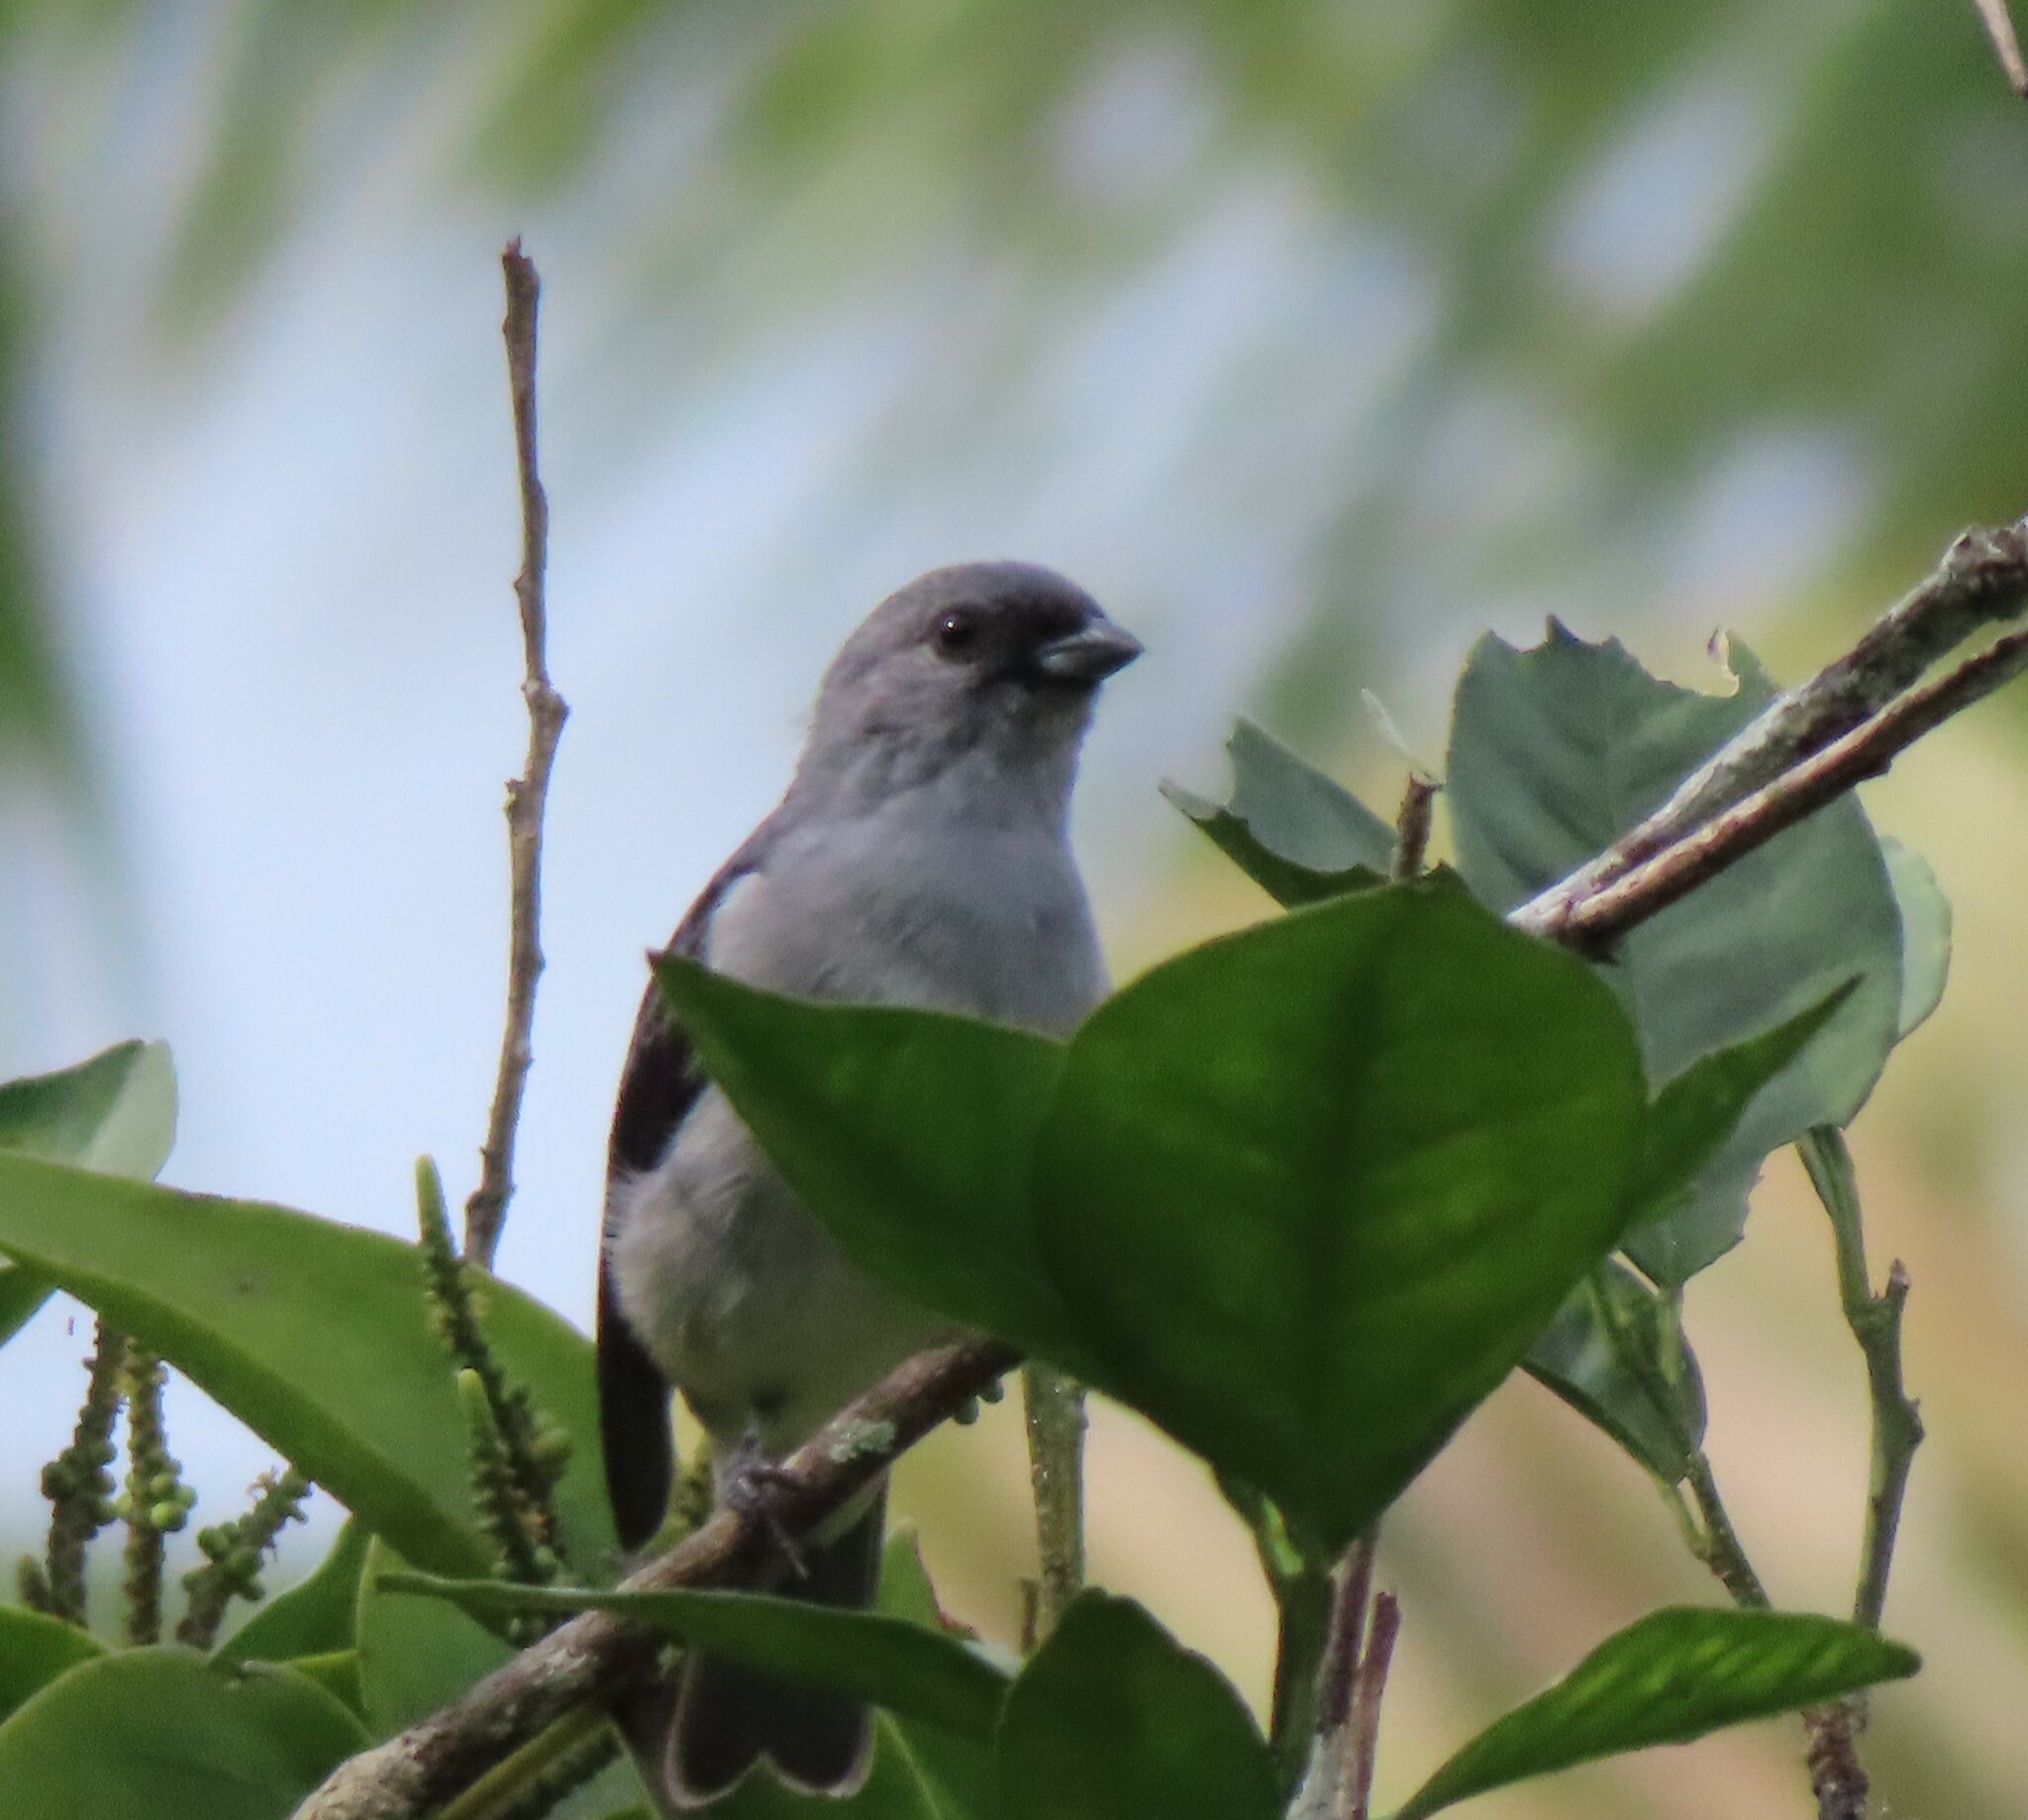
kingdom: Animalia
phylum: Chordata
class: Aves
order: Passeriformes
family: Thraupidae
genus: Tangara
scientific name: Tangara inornata
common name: Plain-colored tanager
